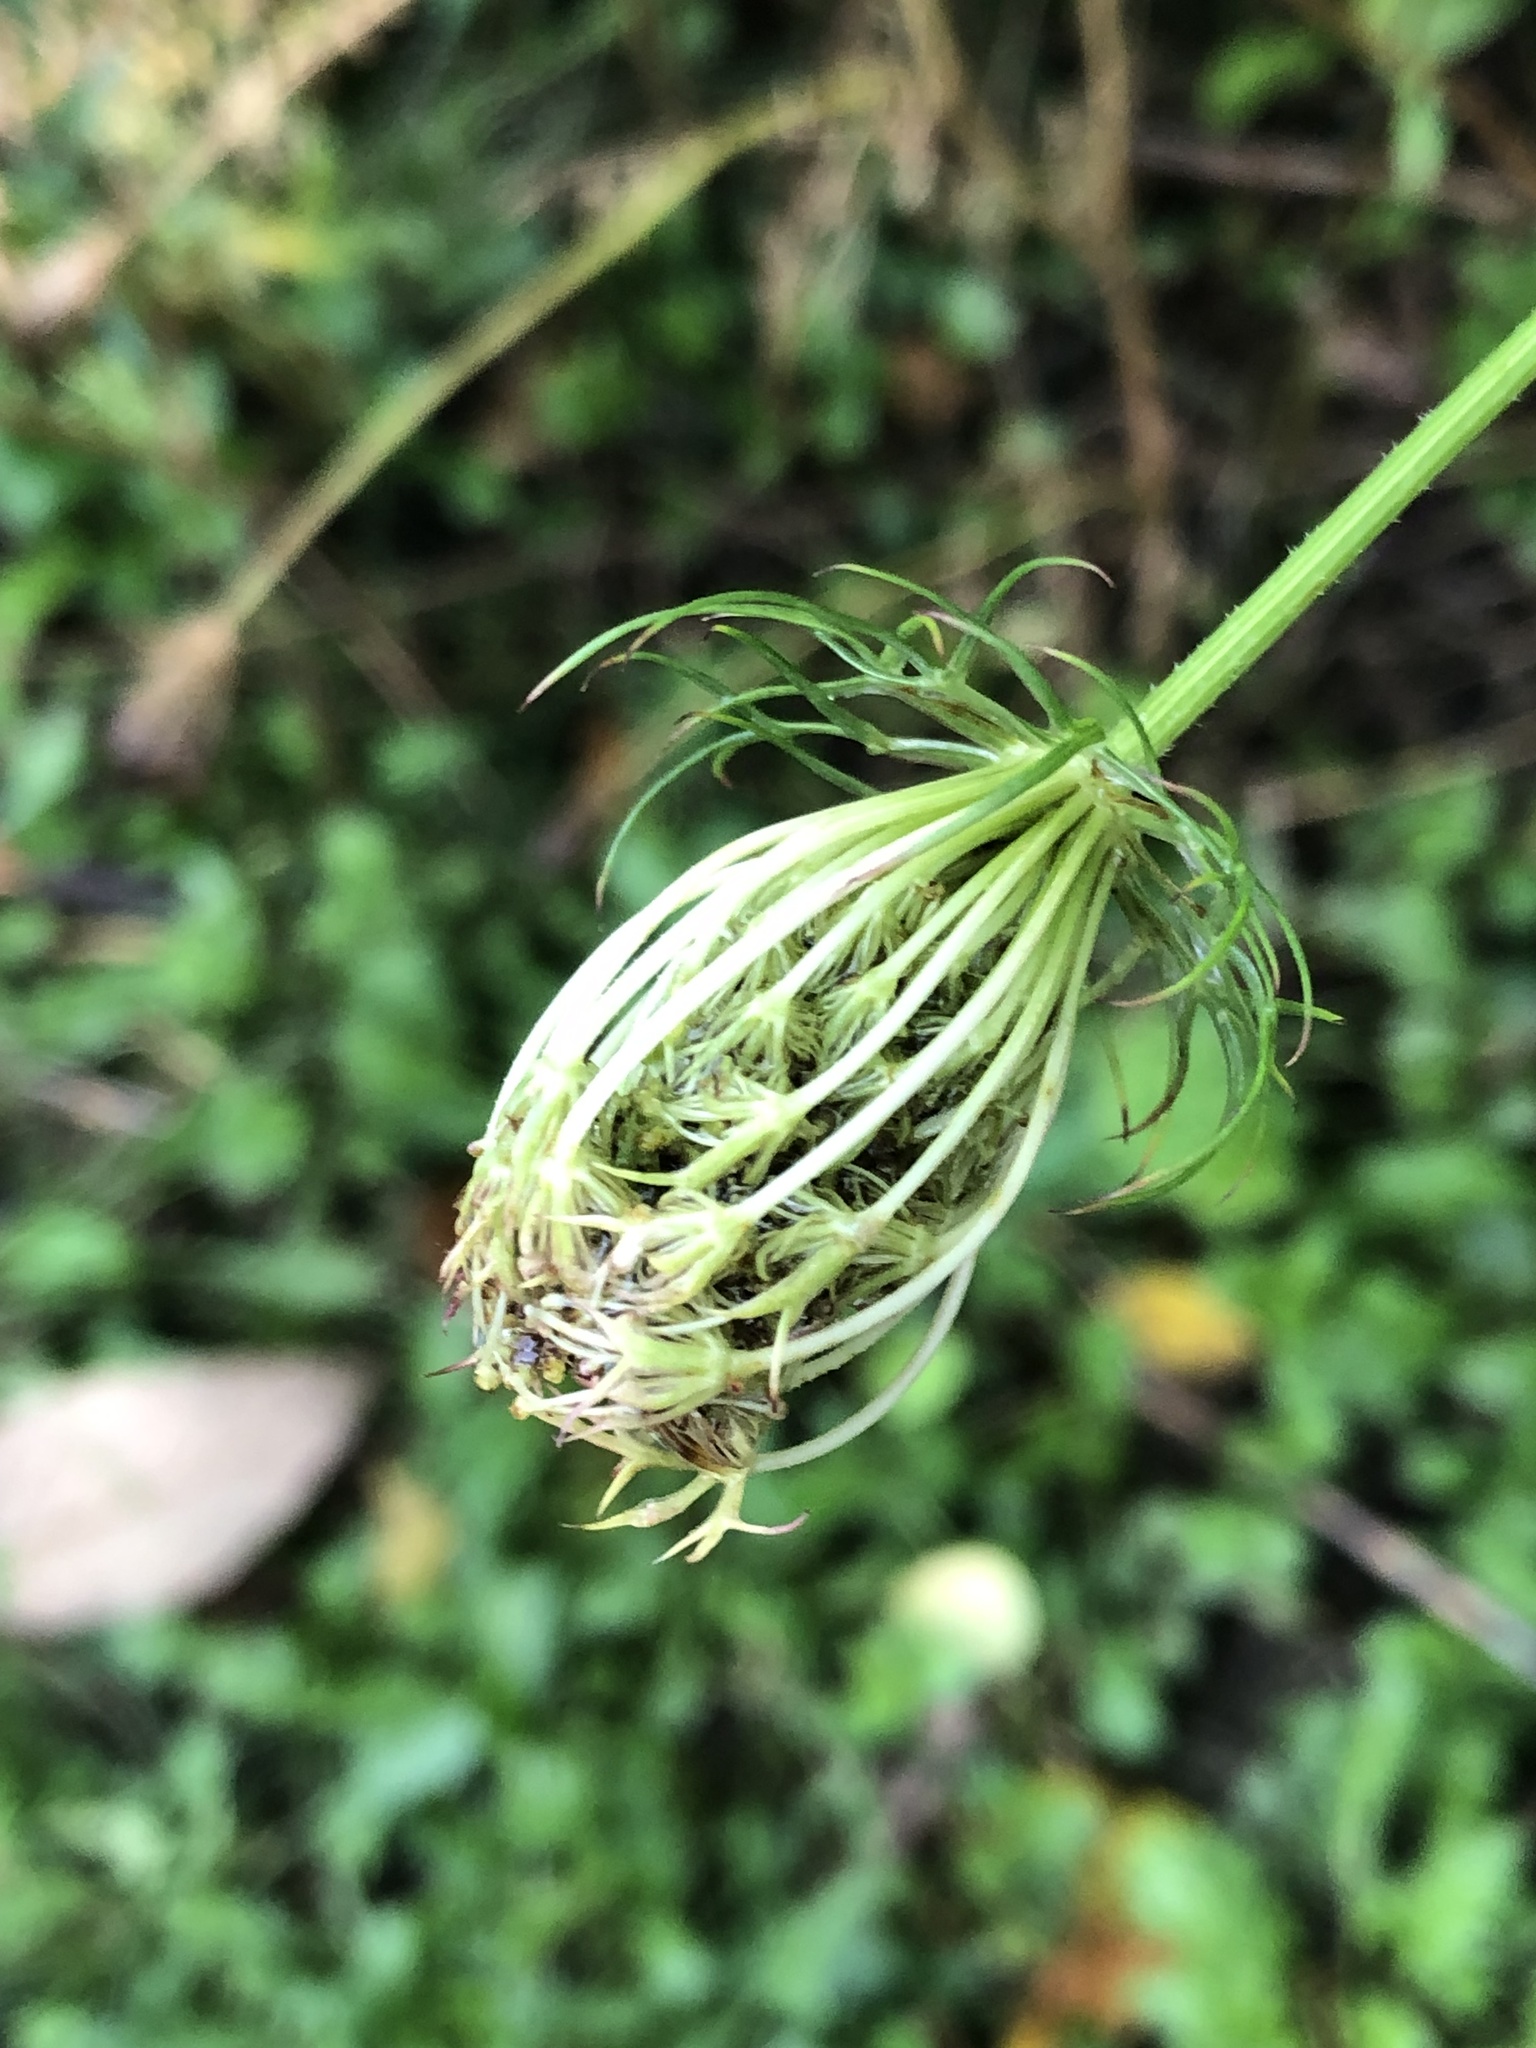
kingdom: Plantae
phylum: Tracheophyta
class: Magnoliopsida
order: Apiales
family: Apiaceae
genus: Daucus
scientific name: Daucus carota
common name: Wild carrot
